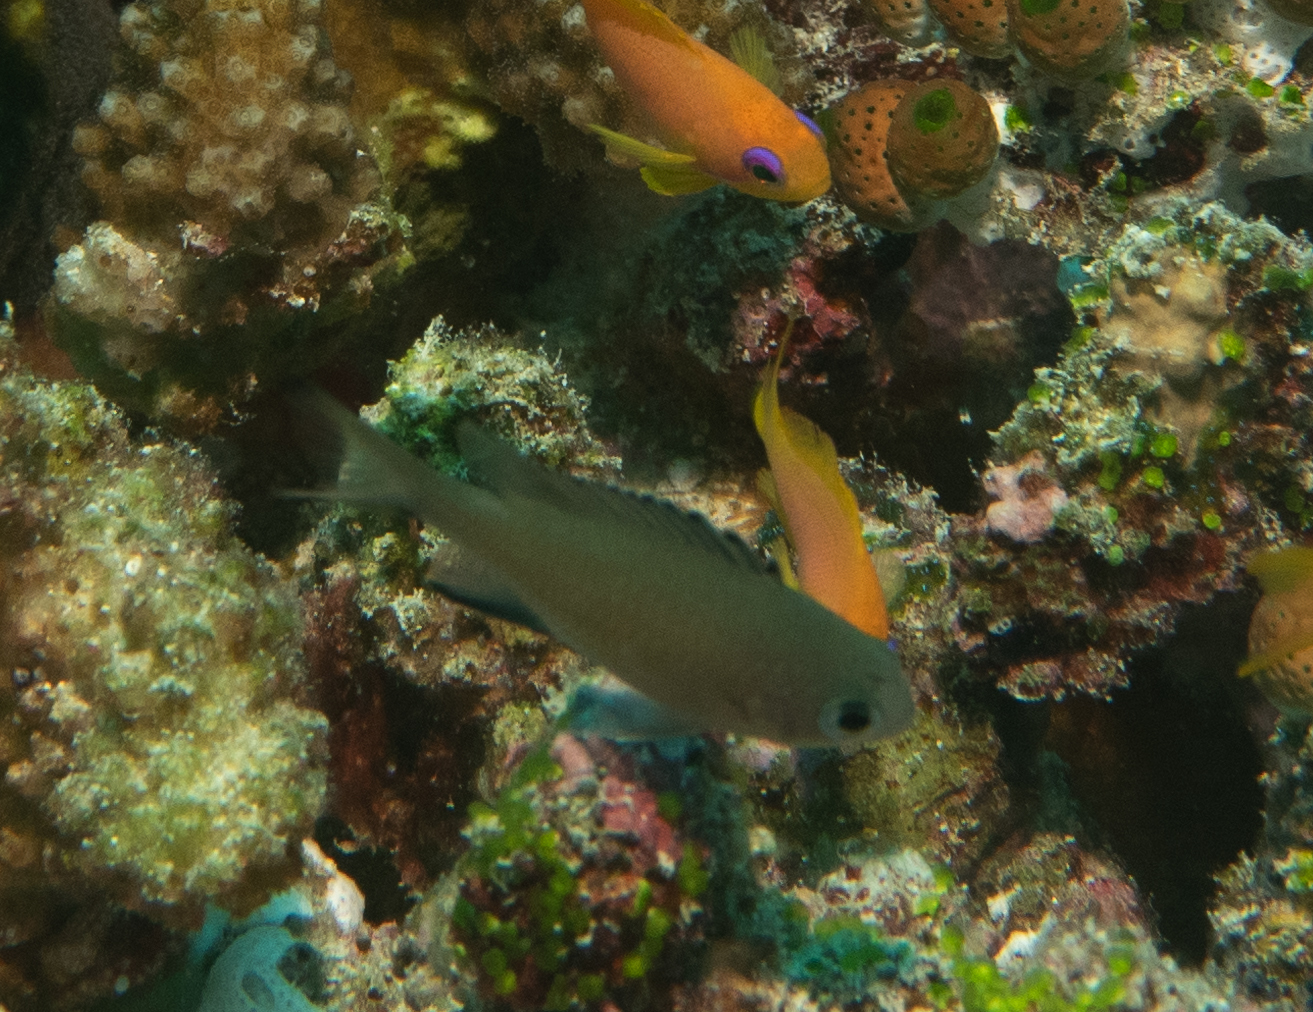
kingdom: Animalia
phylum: Chordata
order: Perciformes
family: Pomacentridae
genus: Chromis
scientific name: Chromis lepidolepis
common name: Scaly chromis
